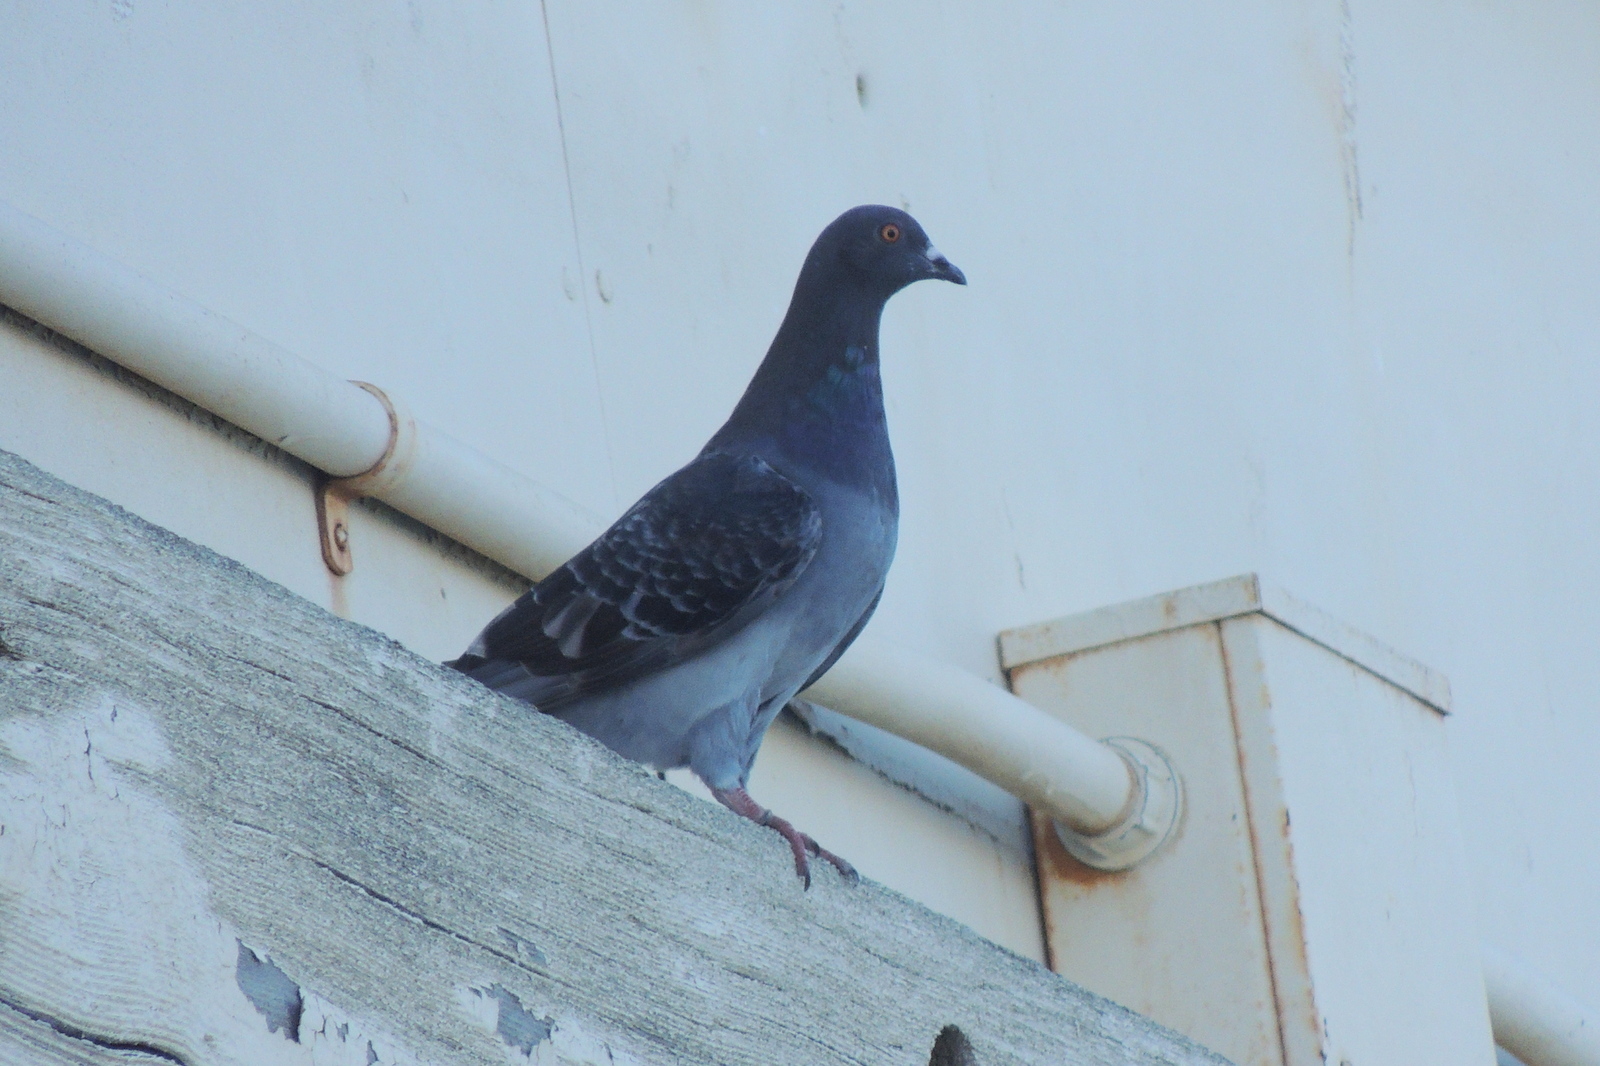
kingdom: Animalia
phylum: Chordata
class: Aves
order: Columbiformes
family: Columbidae
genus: Columba
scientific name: Columba livia
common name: Rock pigeon
